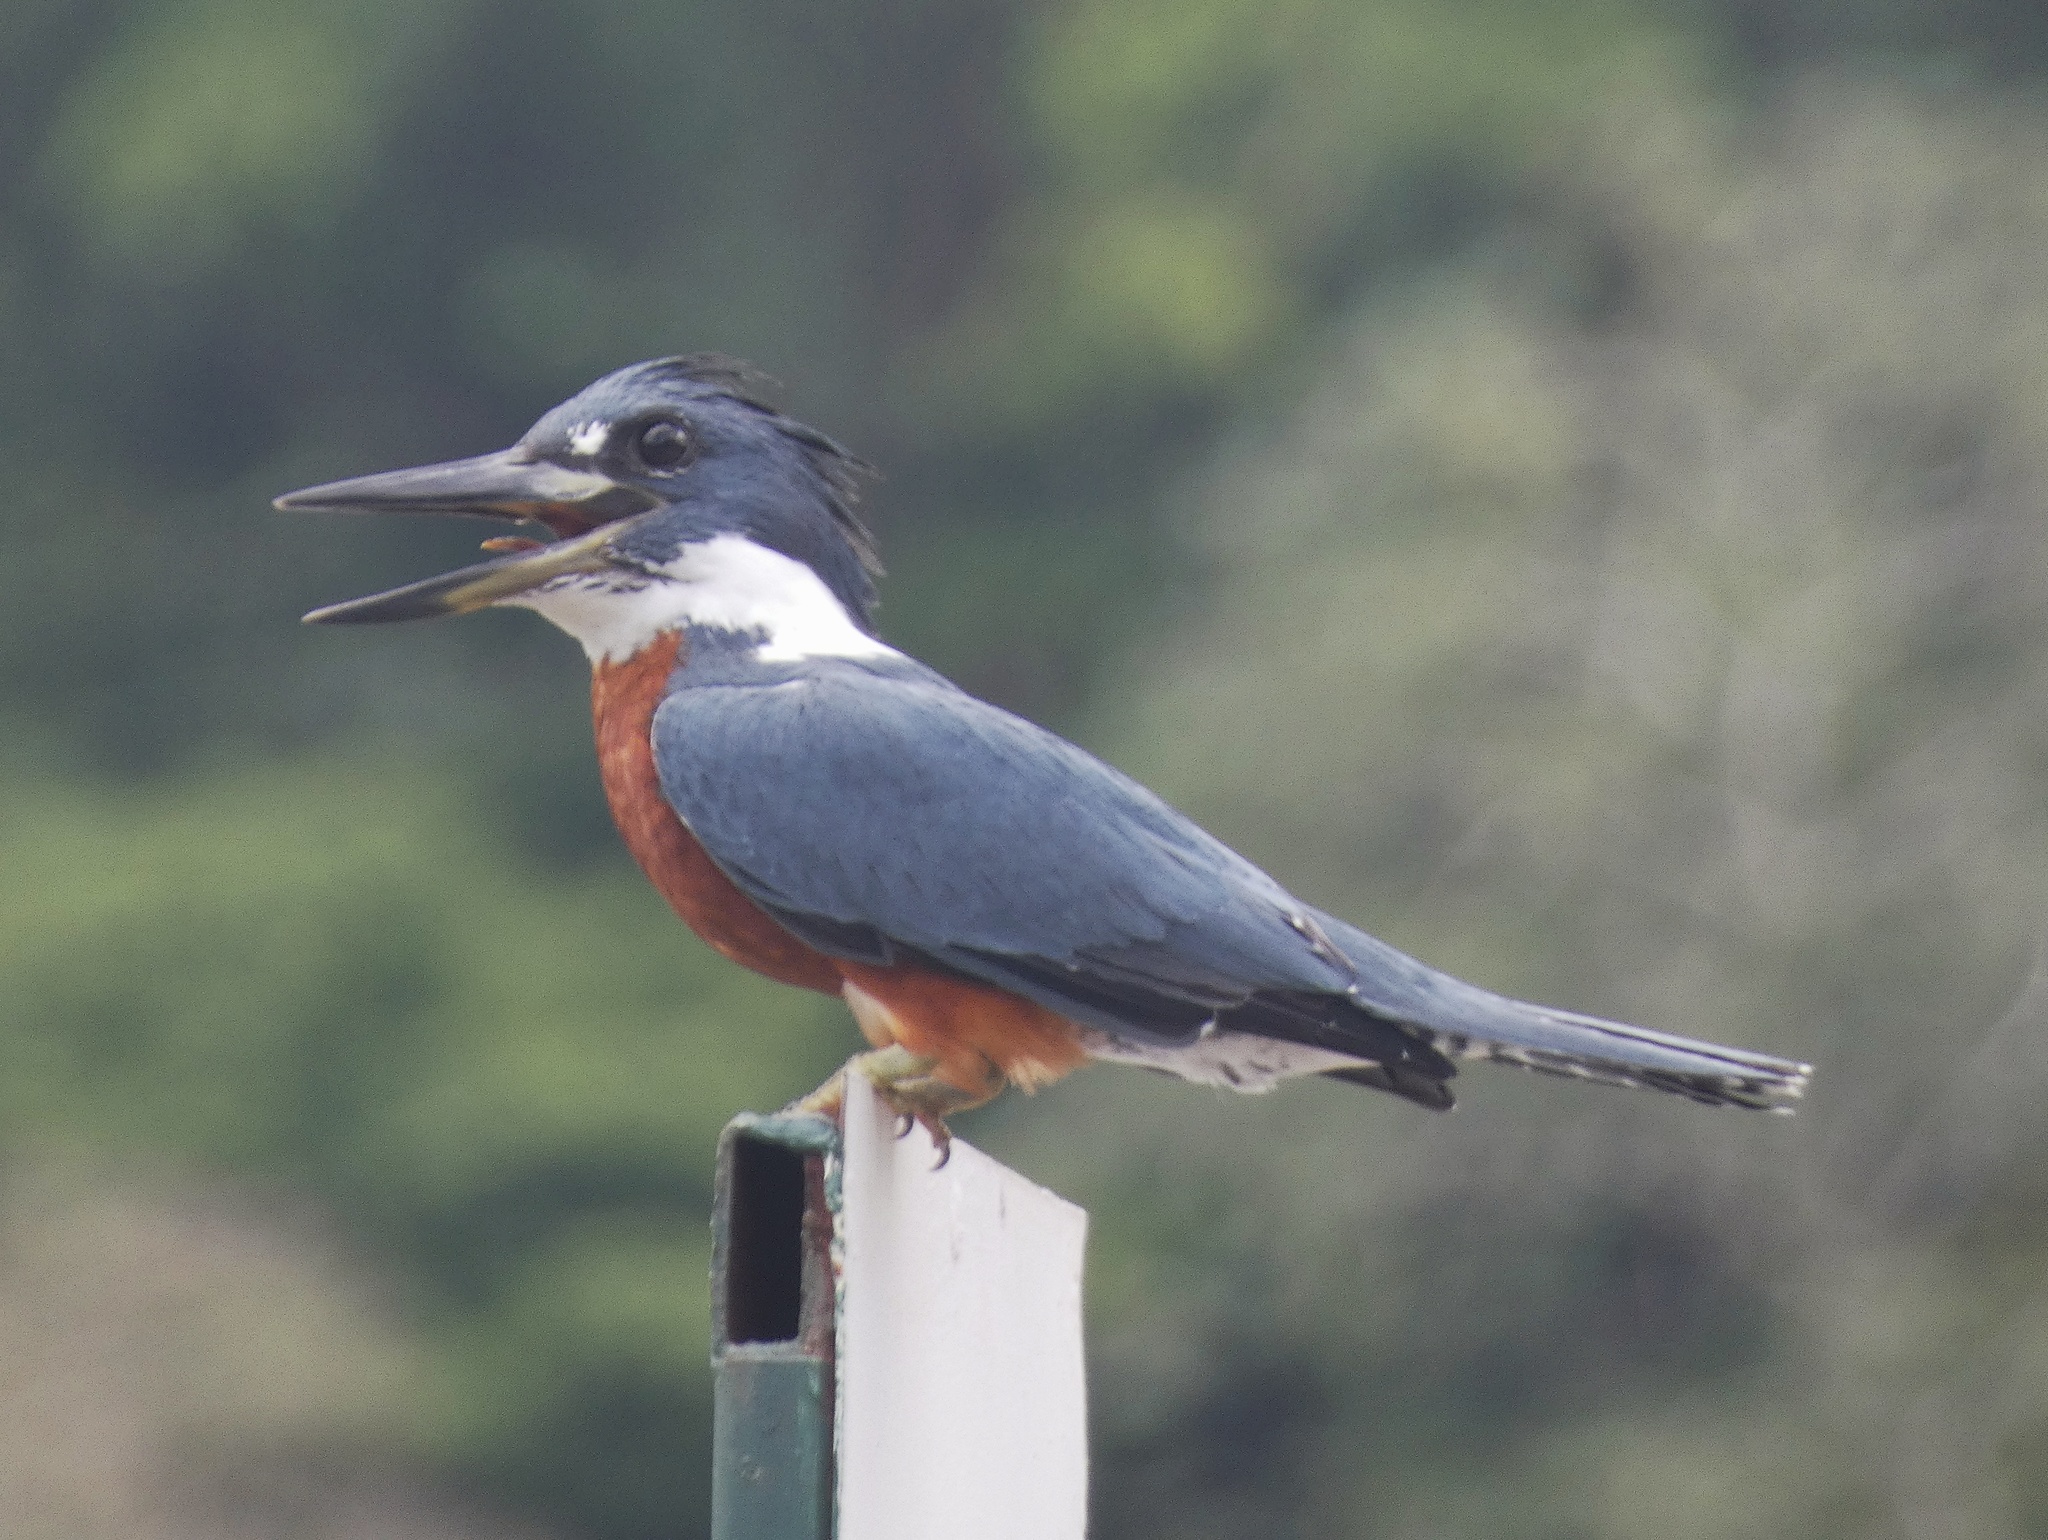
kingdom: Animalia
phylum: Chordata
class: Aves
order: Coraciiformes
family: Alcedinidae
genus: Megaceryle
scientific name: Megaceryle torquata
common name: Ringed kingfisher
